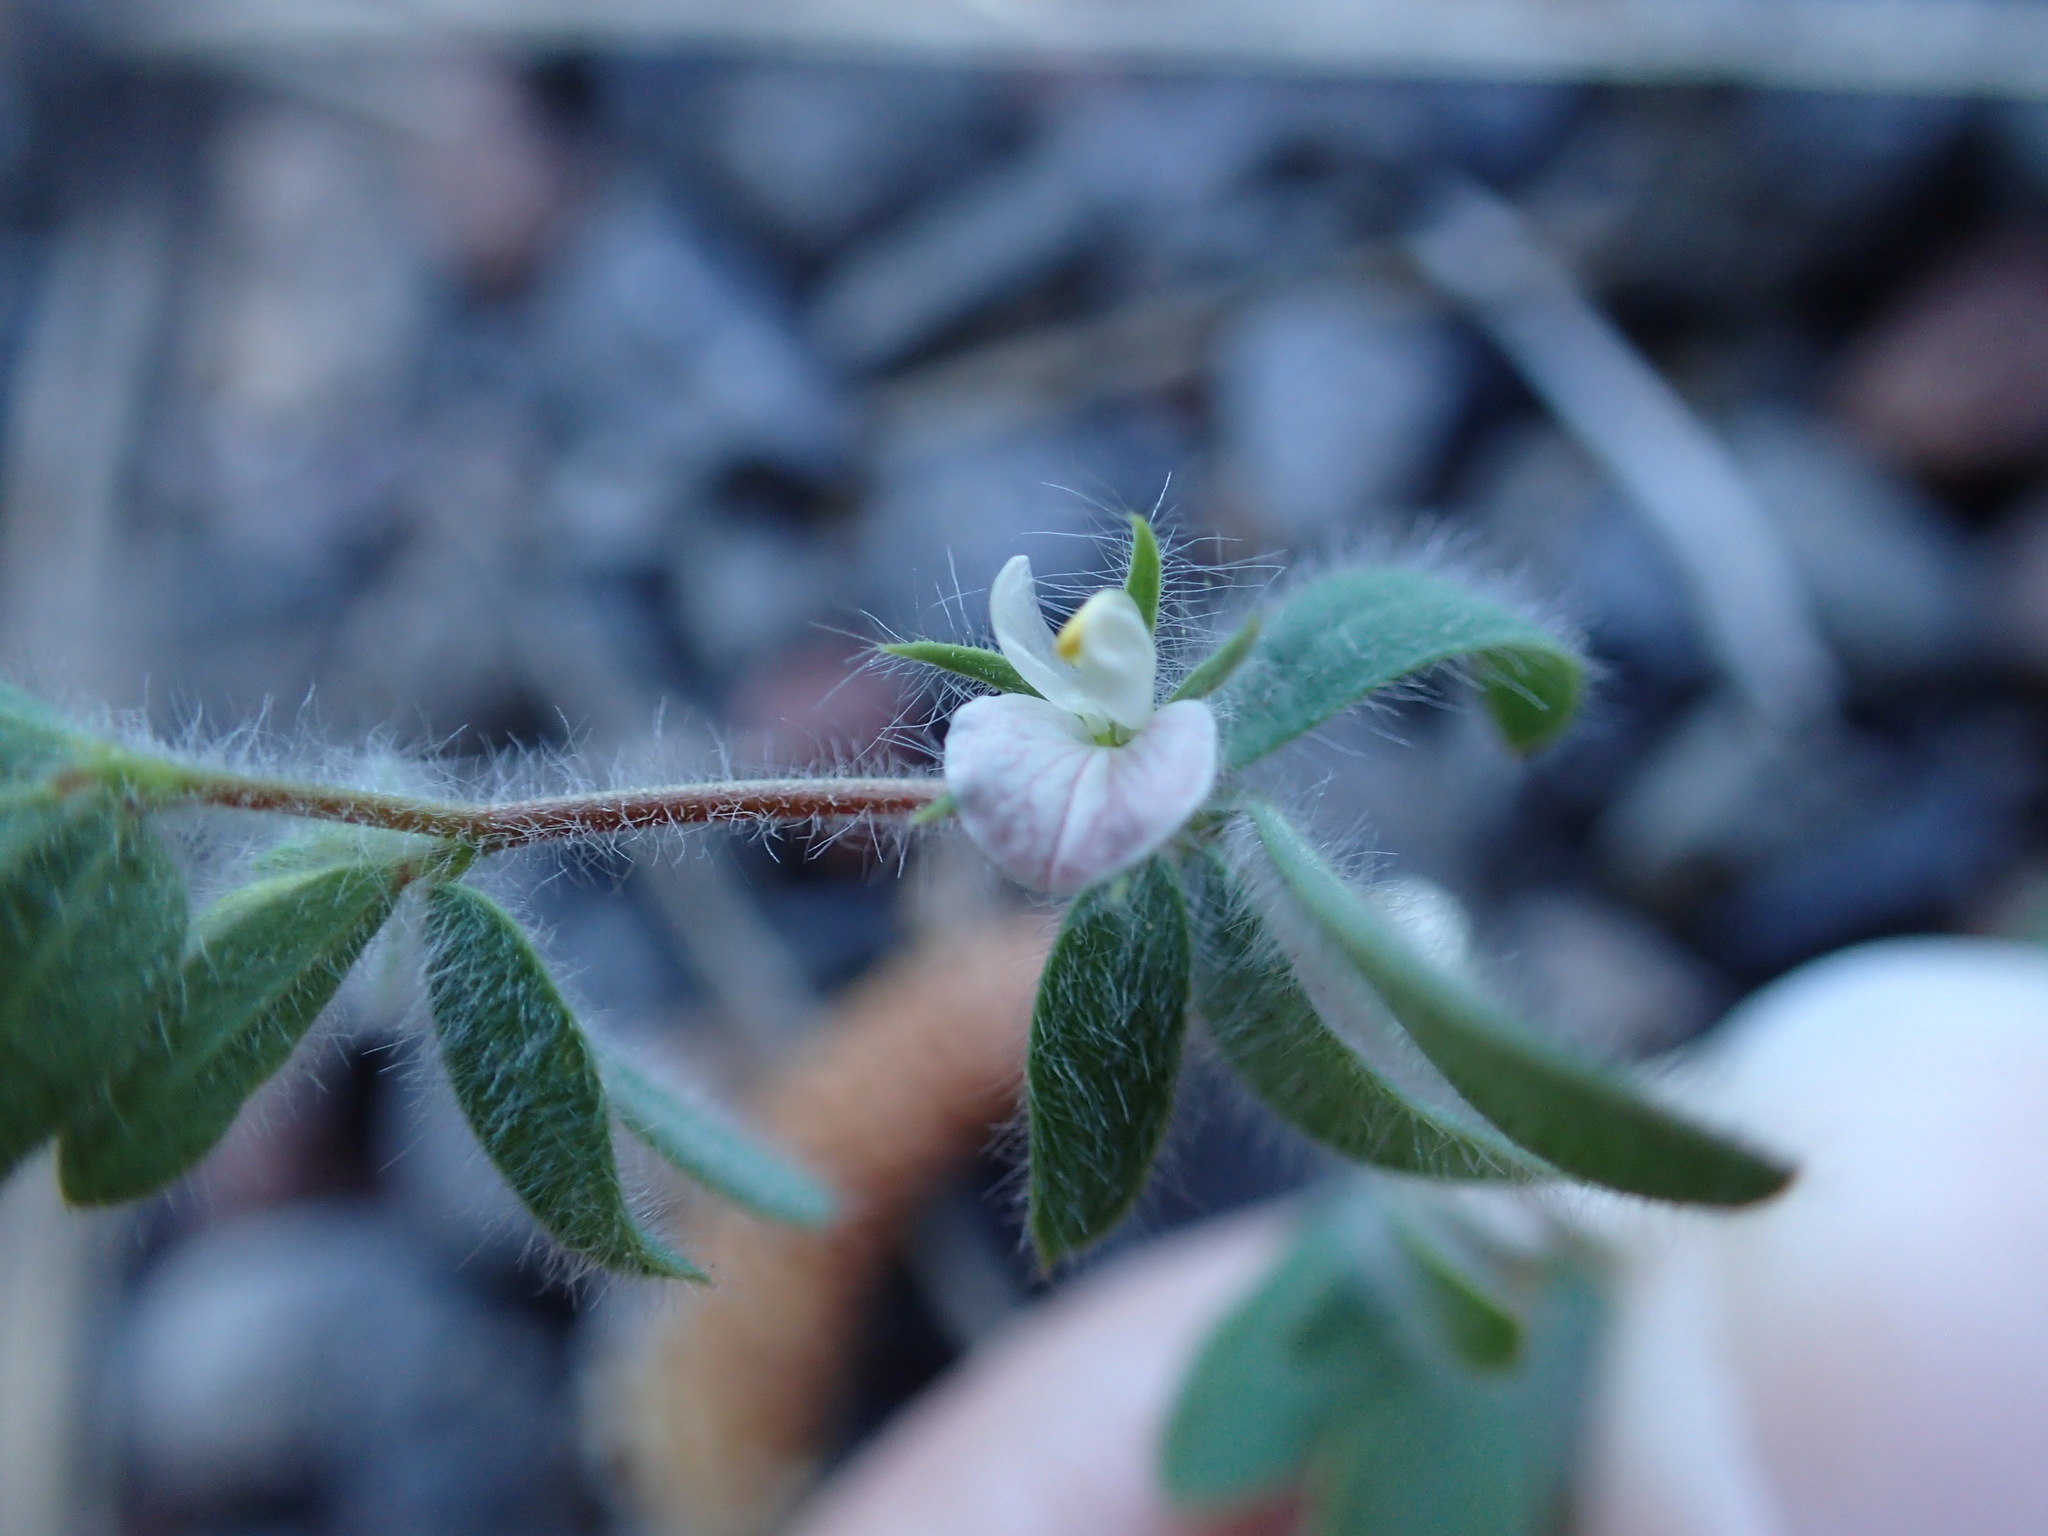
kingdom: Plantae
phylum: Tracheophyta
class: Magnoliopsida
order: Fabales
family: Fabaceae
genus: Acmispon
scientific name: Acmispon americanus
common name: American bird's-foot trefoil
